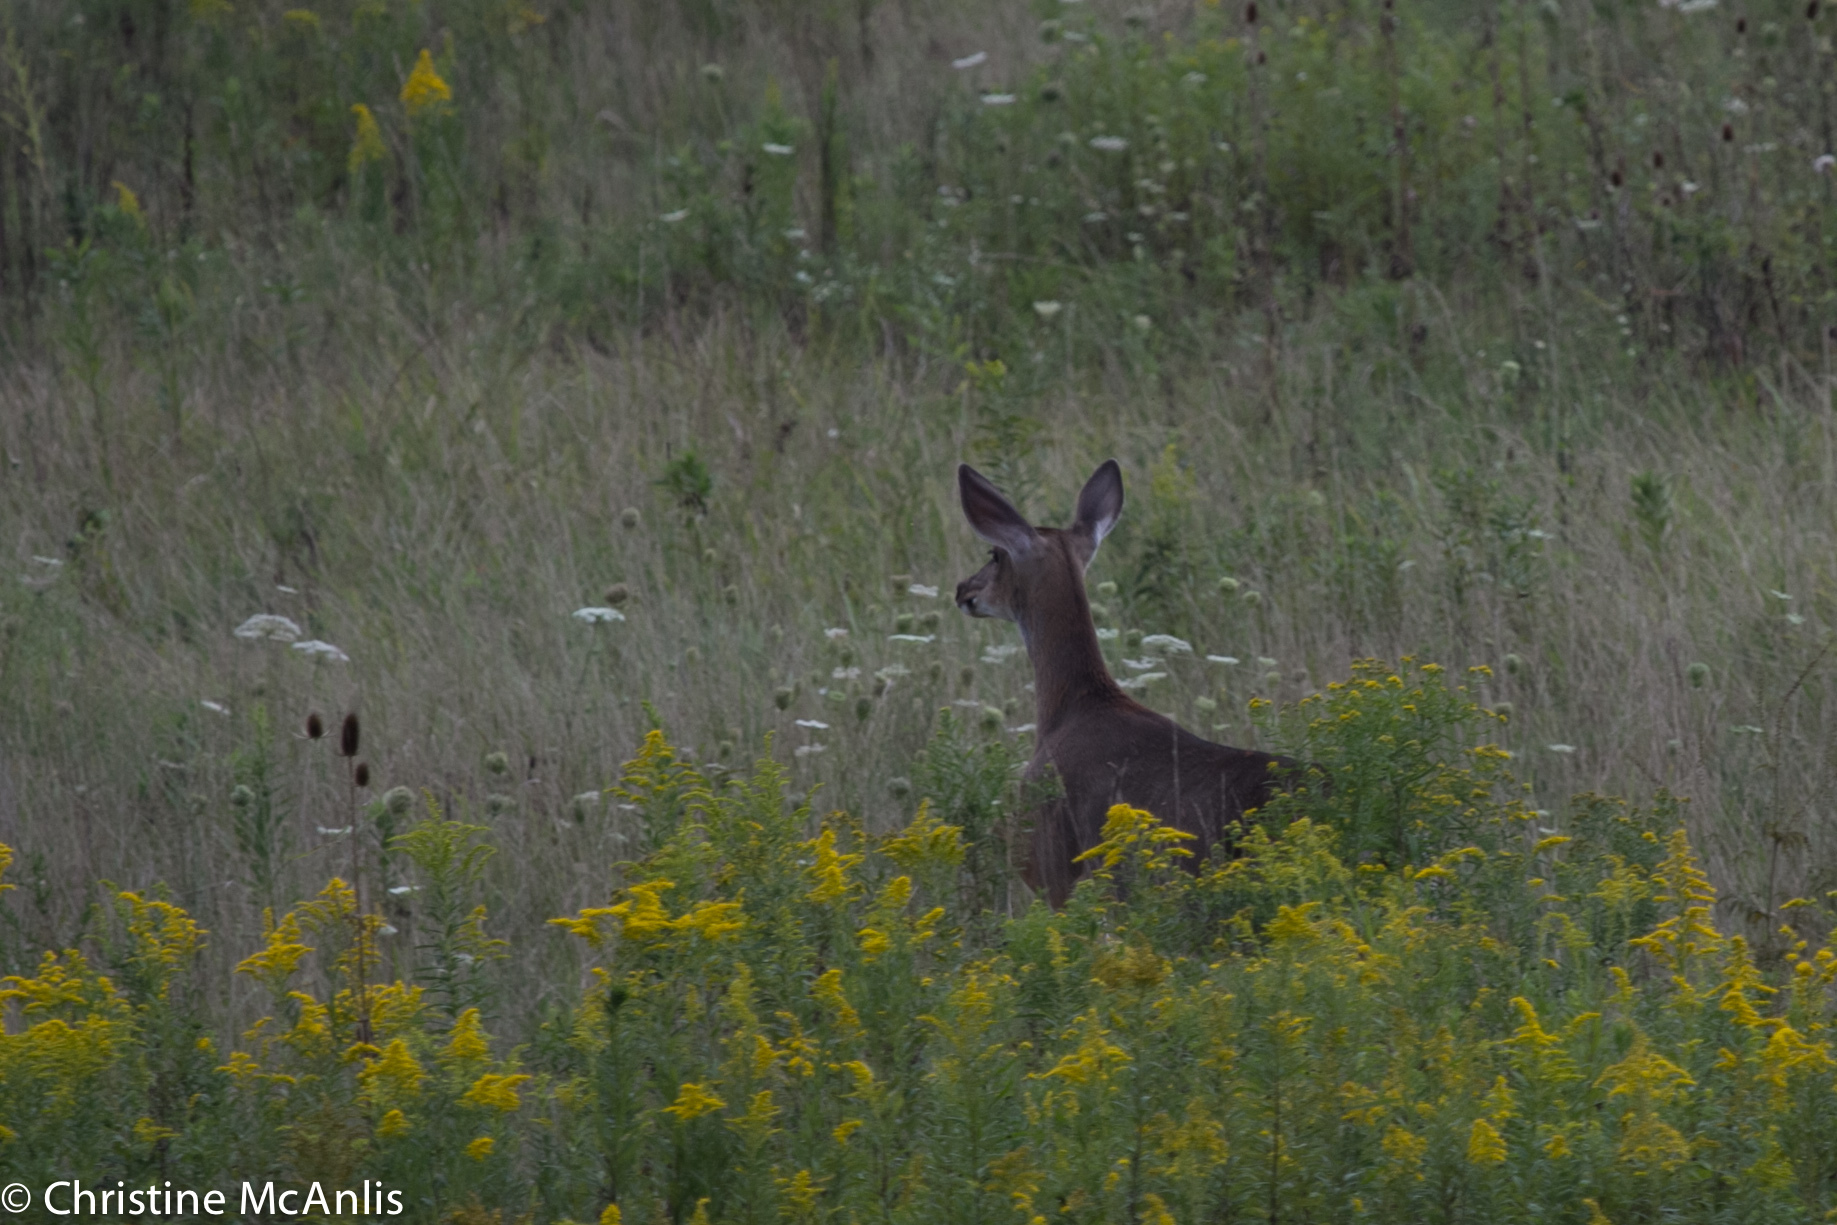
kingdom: Animalia
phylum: Chordata
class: Mammalia
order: Artiodactyla
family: Cervidae
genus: Odocoileus
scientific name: Odocoileus virginianus
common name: White-tailed deer
